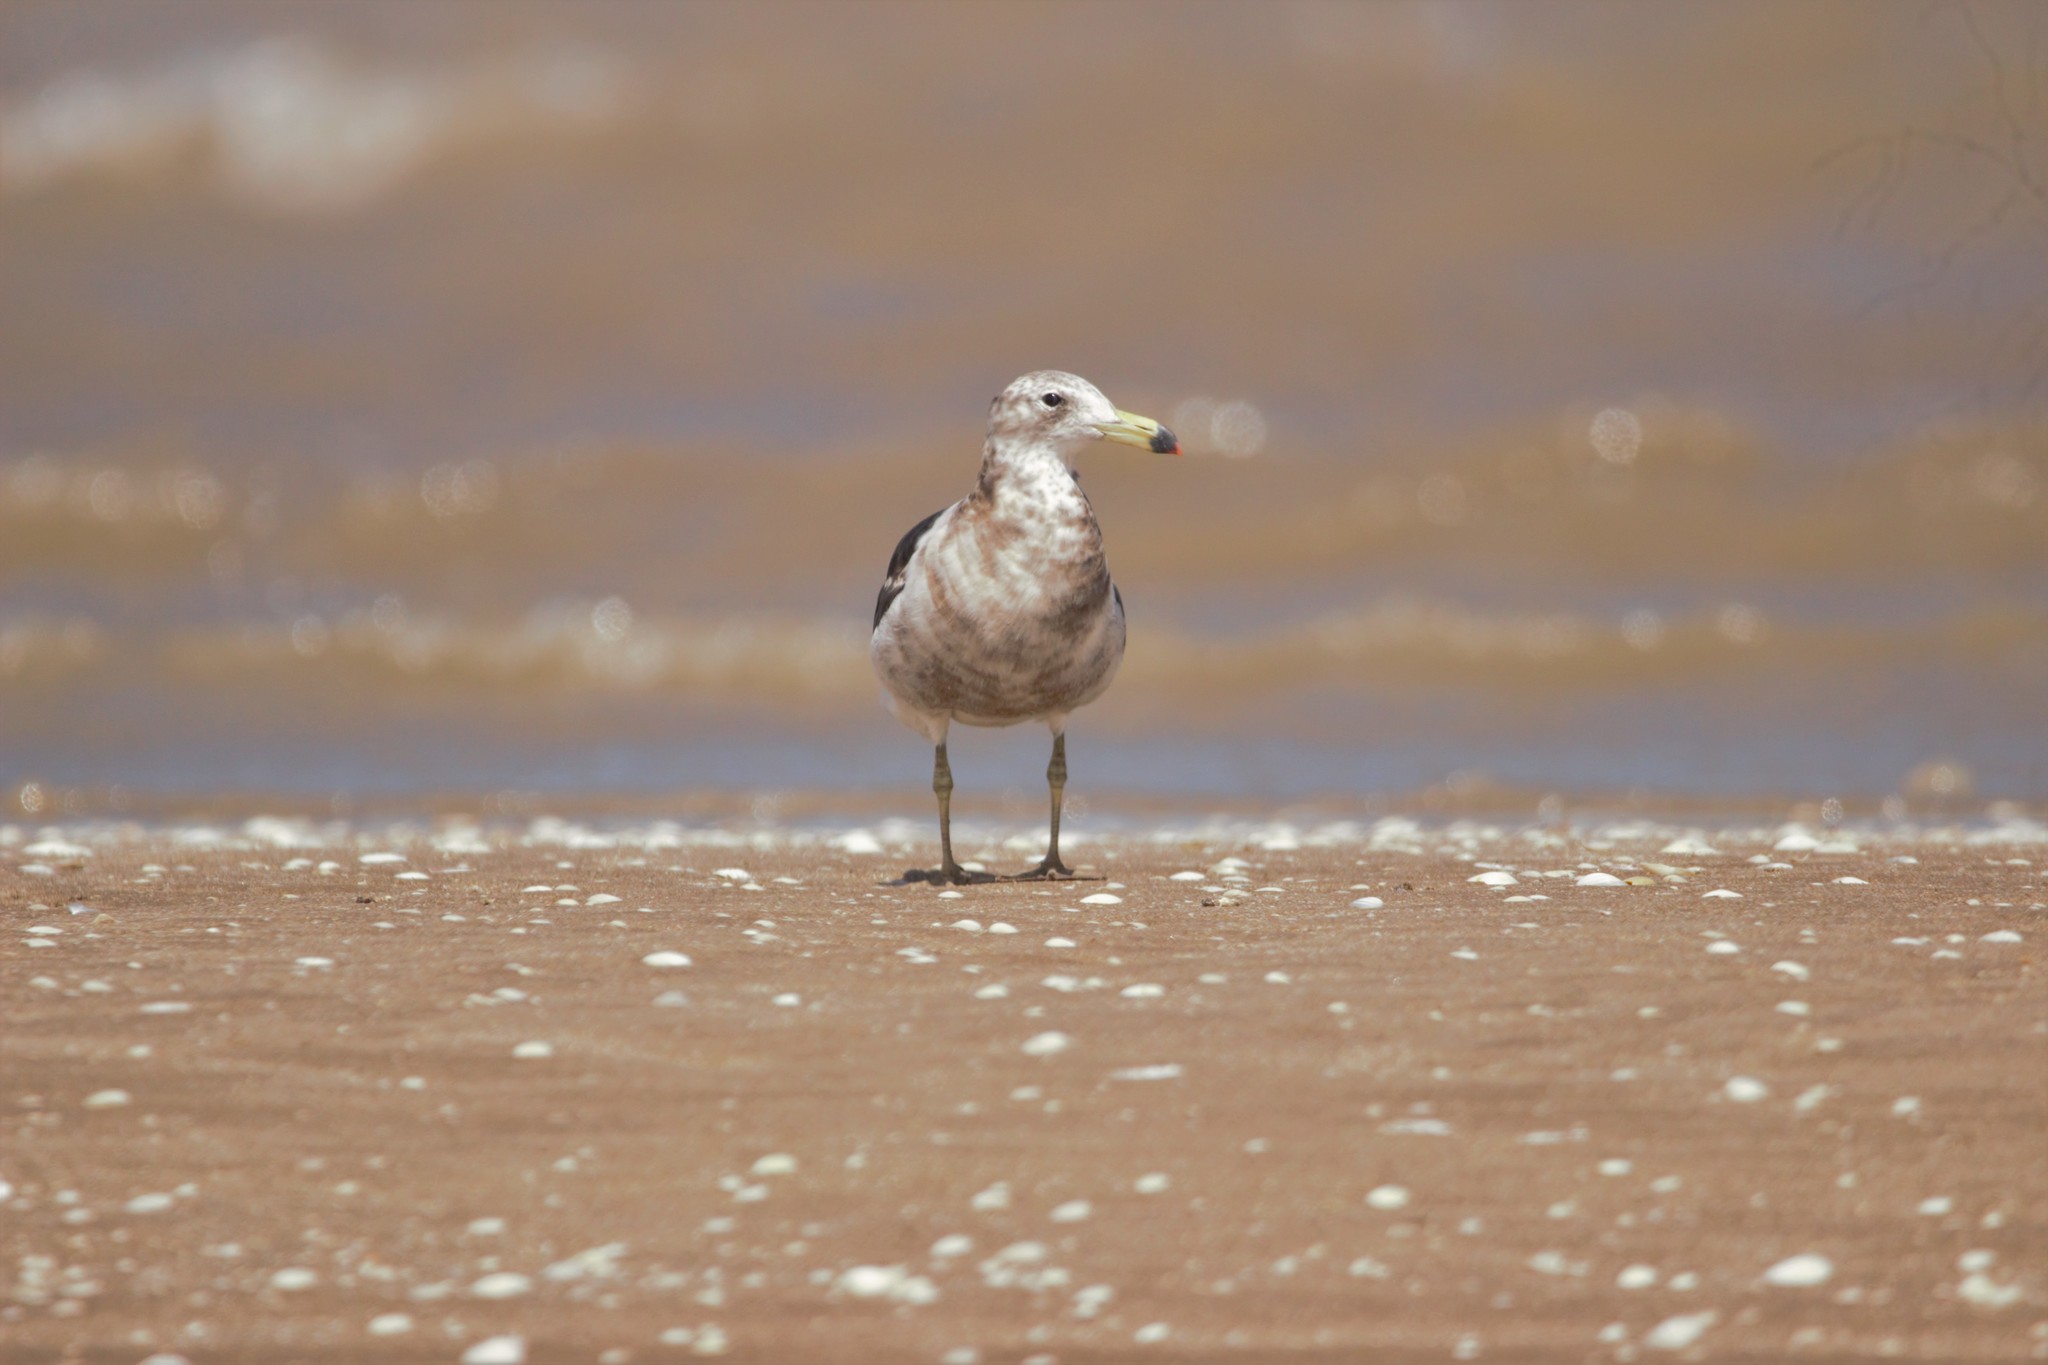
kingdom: Animalia
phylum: Chordata
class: Aves
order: Charadriiformes
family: Laridae
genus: Larus
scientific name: Larus atlanticus
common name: Olrog's gull
